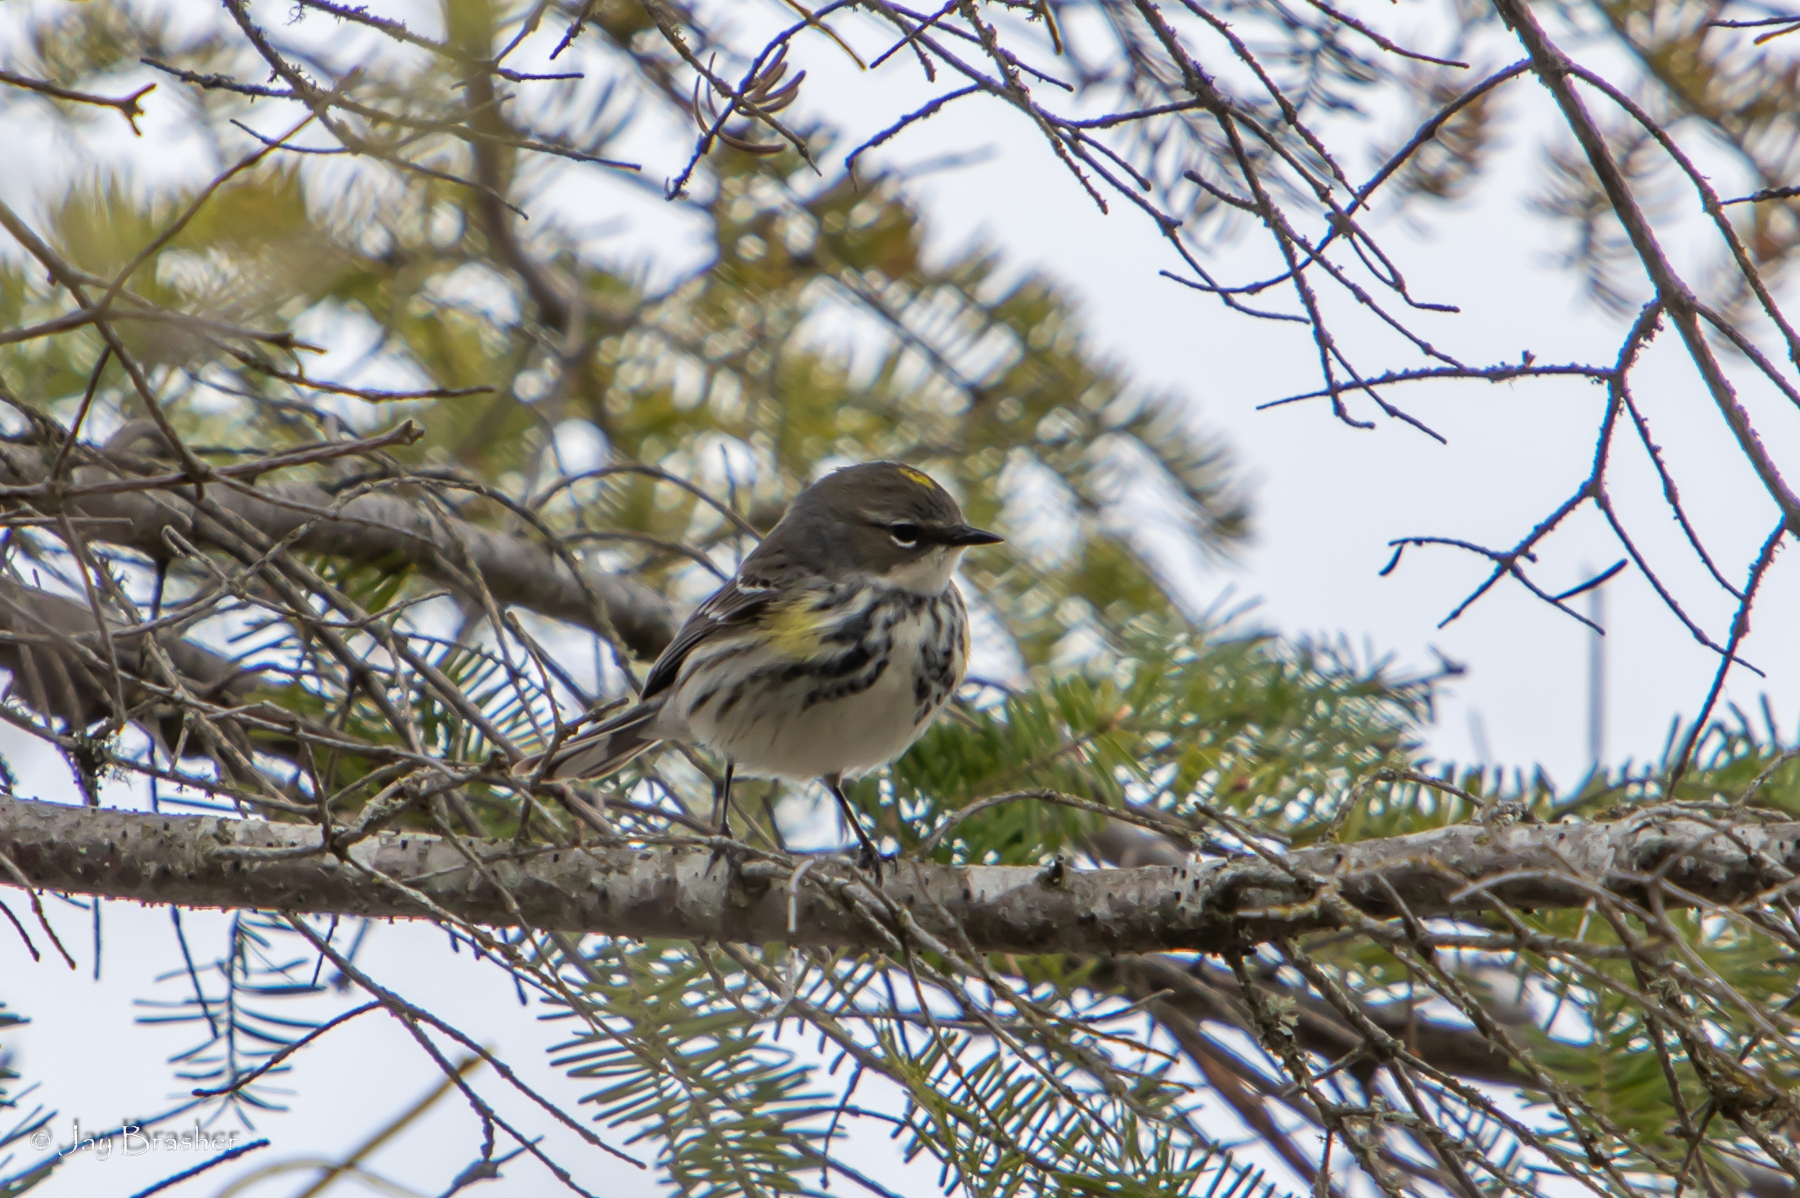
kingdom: Animalia
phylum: Chordata
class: Aves
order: Passeriformes
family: Parulidae
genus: Setophaga
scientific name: Setophaga coronata
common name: Myrtle warbler
